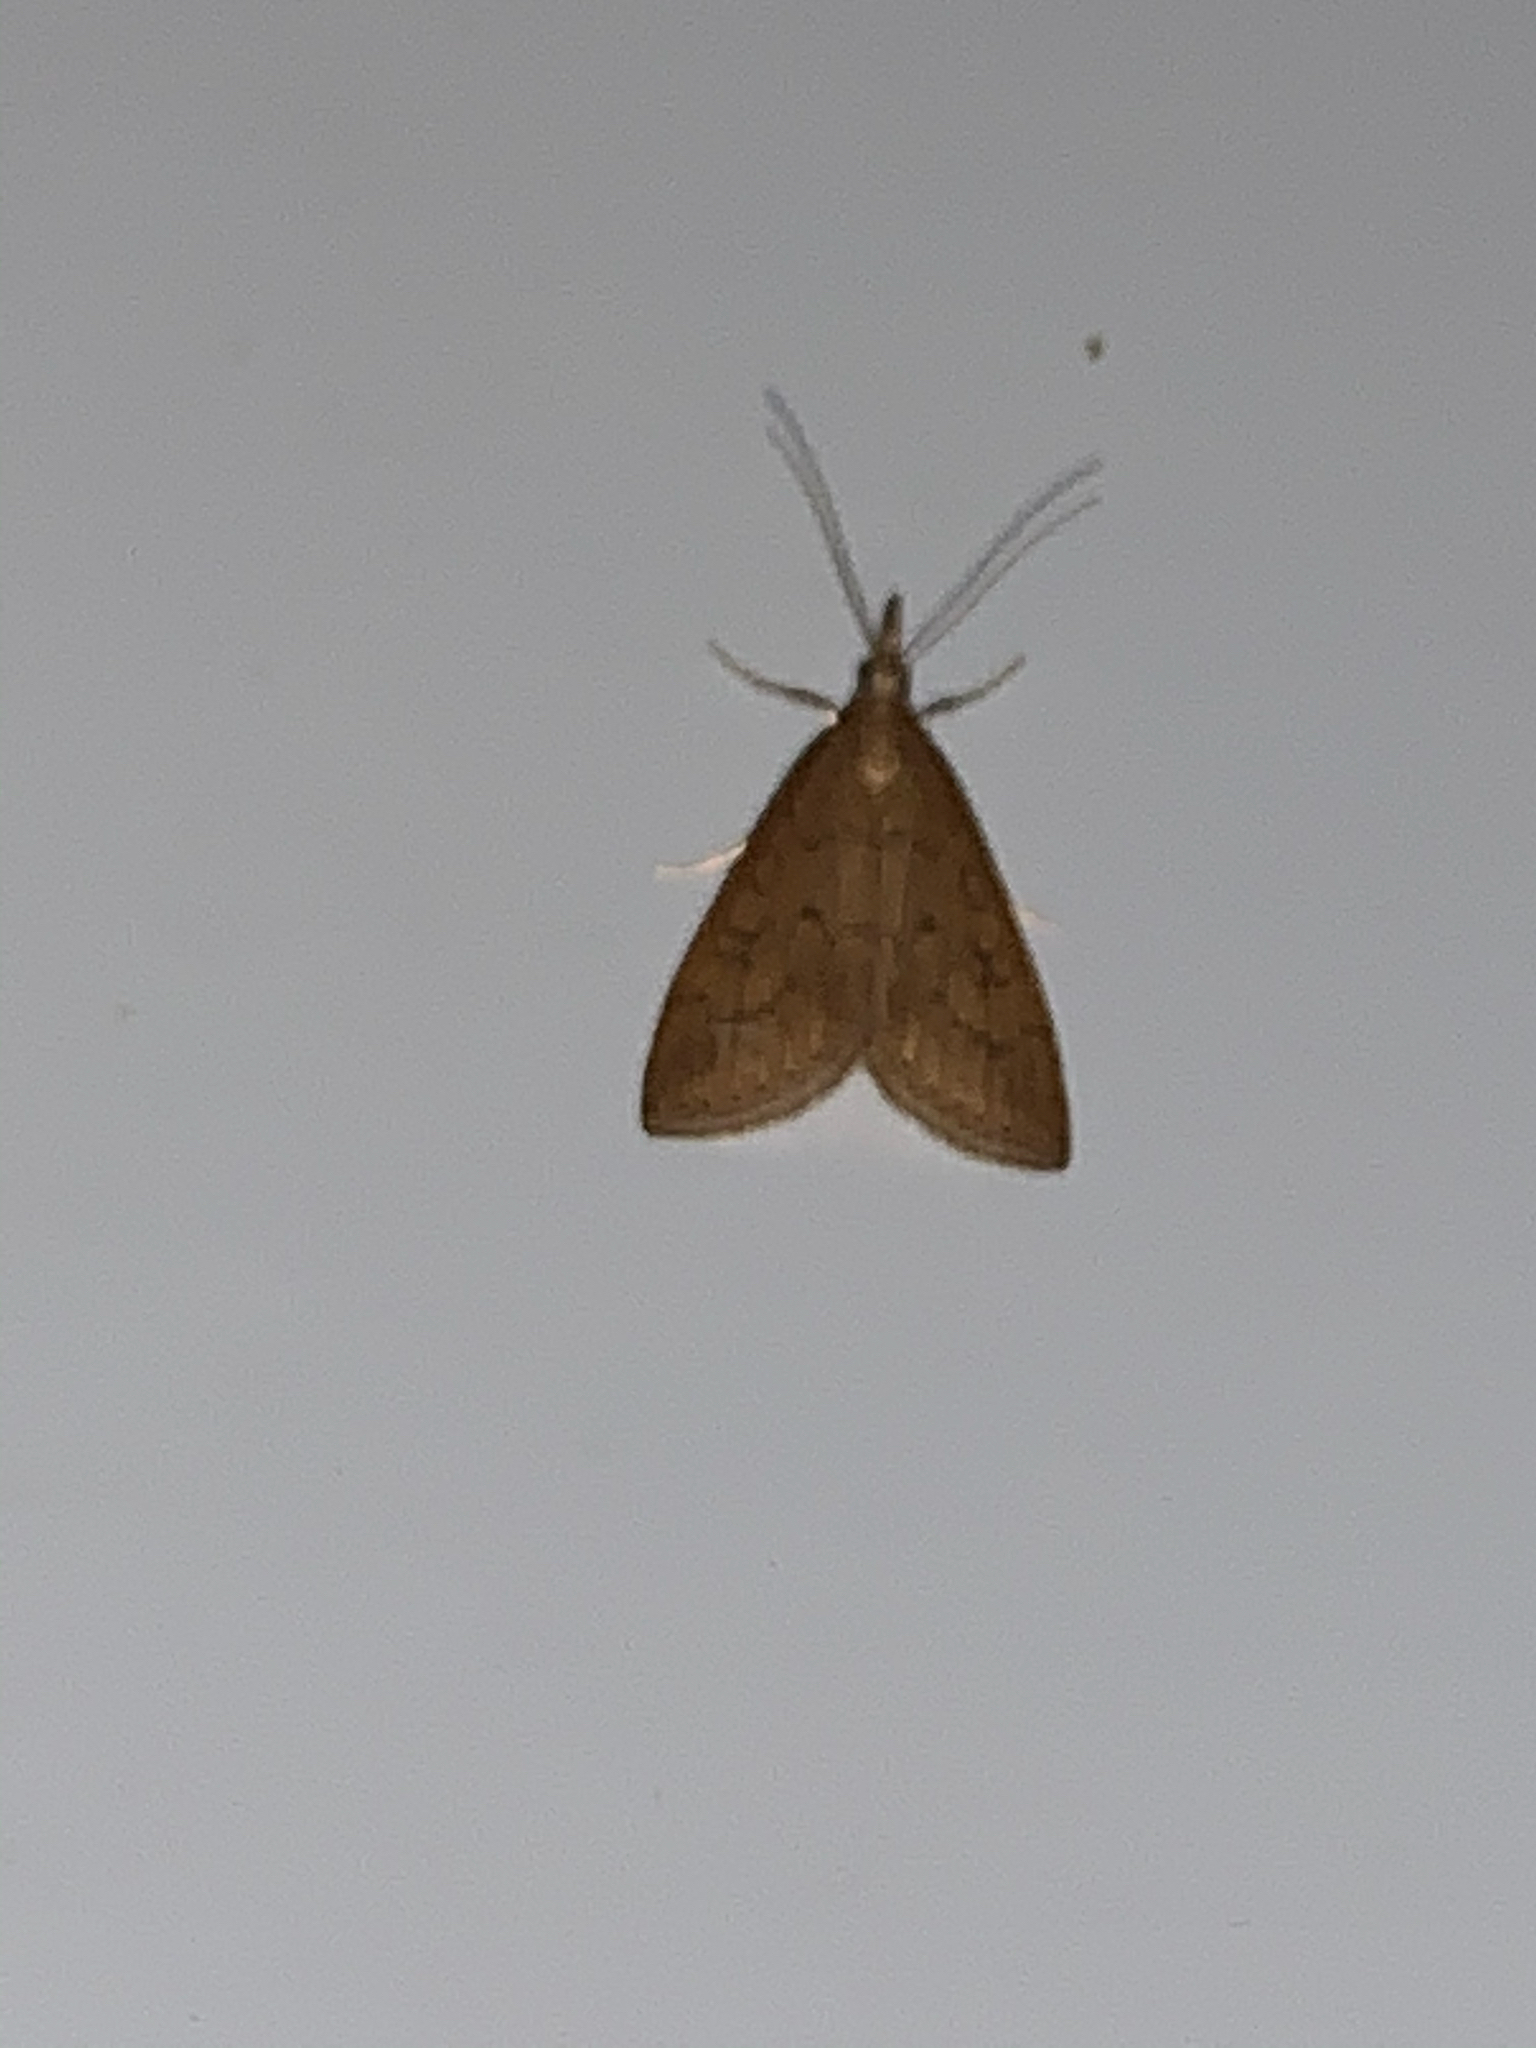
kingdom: Animalia
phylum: Arthropoda
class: Insecta
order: Lepidoptera
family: Crambidae
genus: Udea
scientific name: Udea rubigalis
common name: Celery leaftier moth
